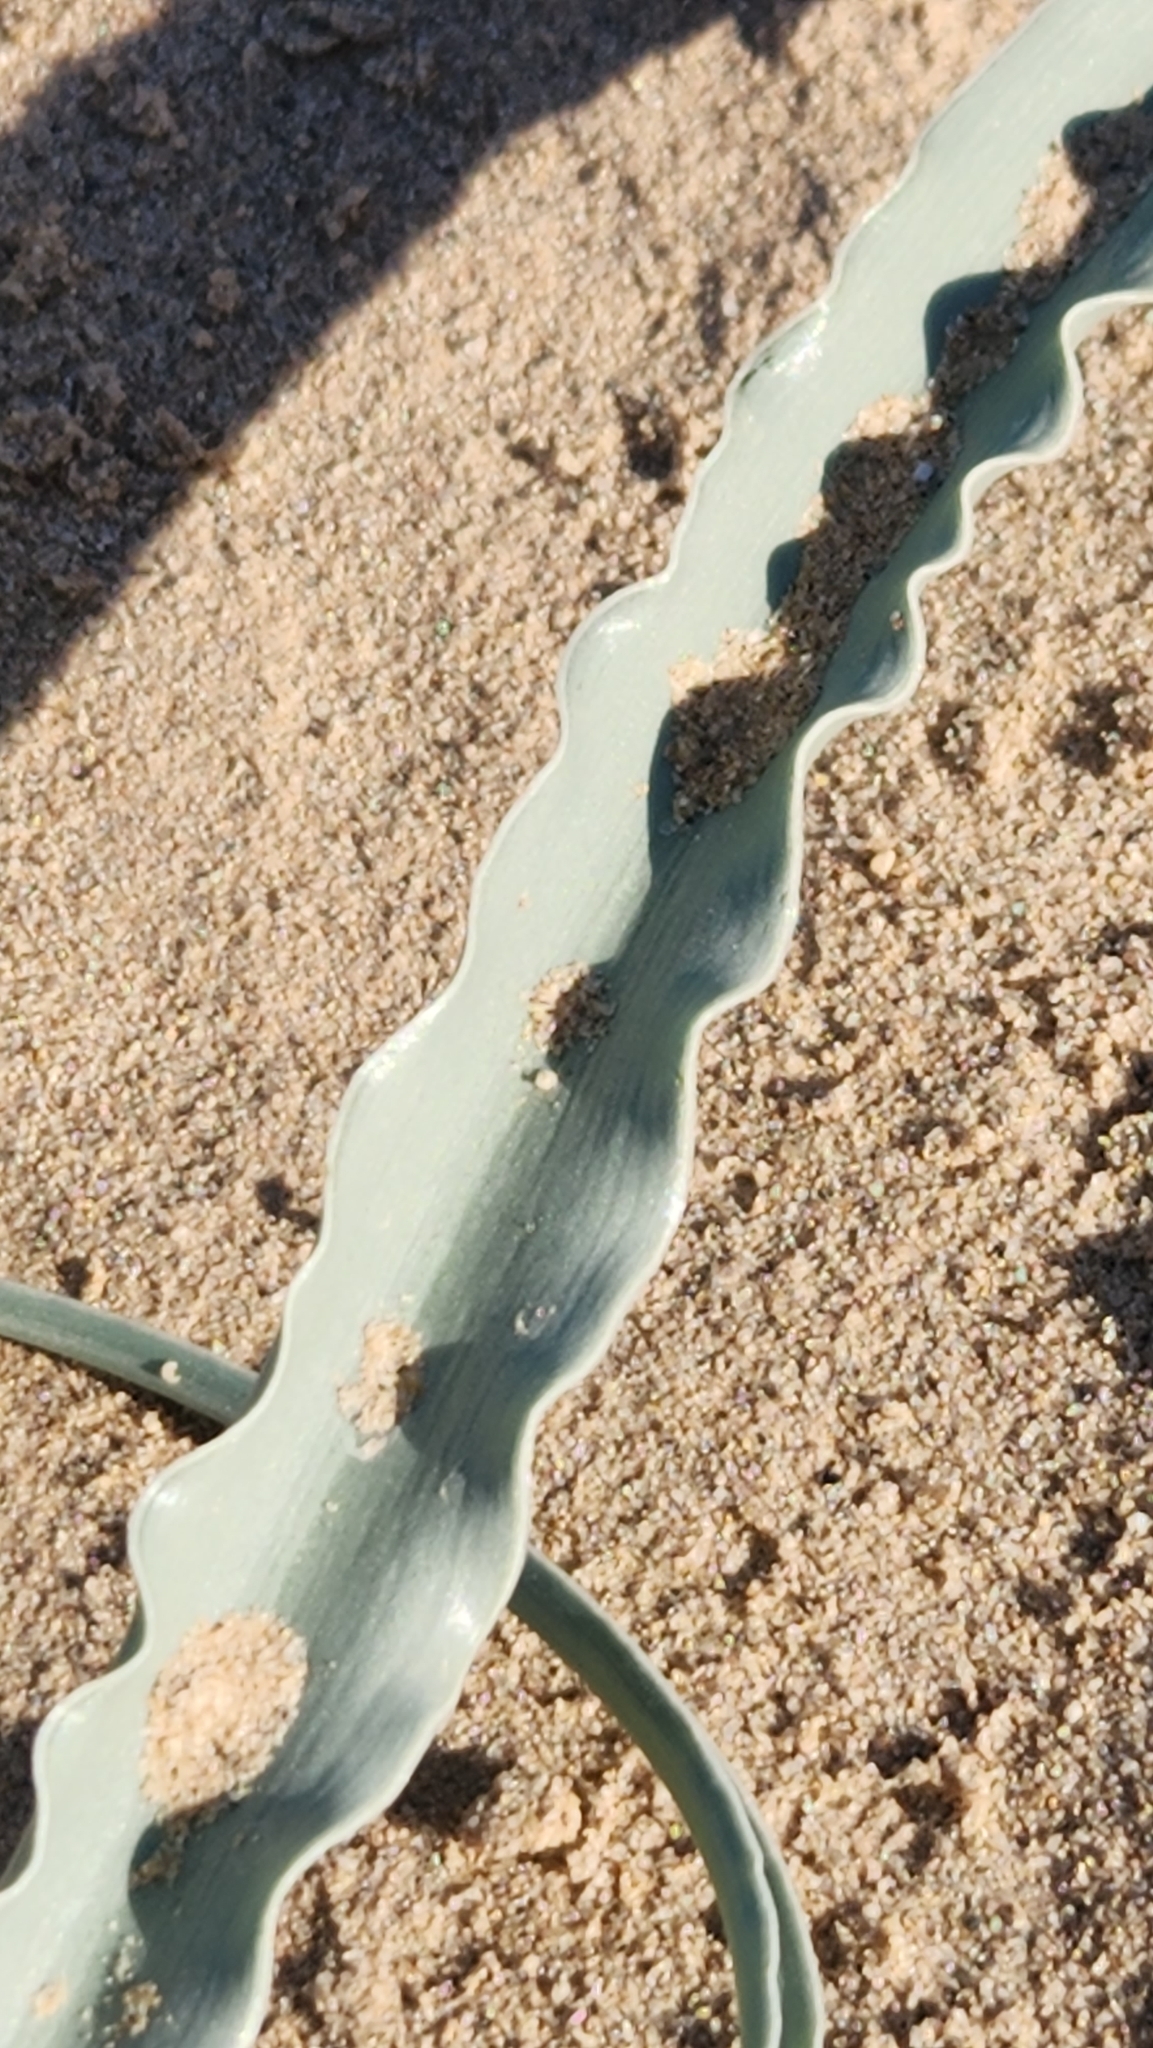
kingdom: Plantae
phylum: Tracheophyta
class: Liliopsida
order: Asparagales
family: Asparagaceae
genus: Hesperocallis
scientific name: Hesperocallis undulata
